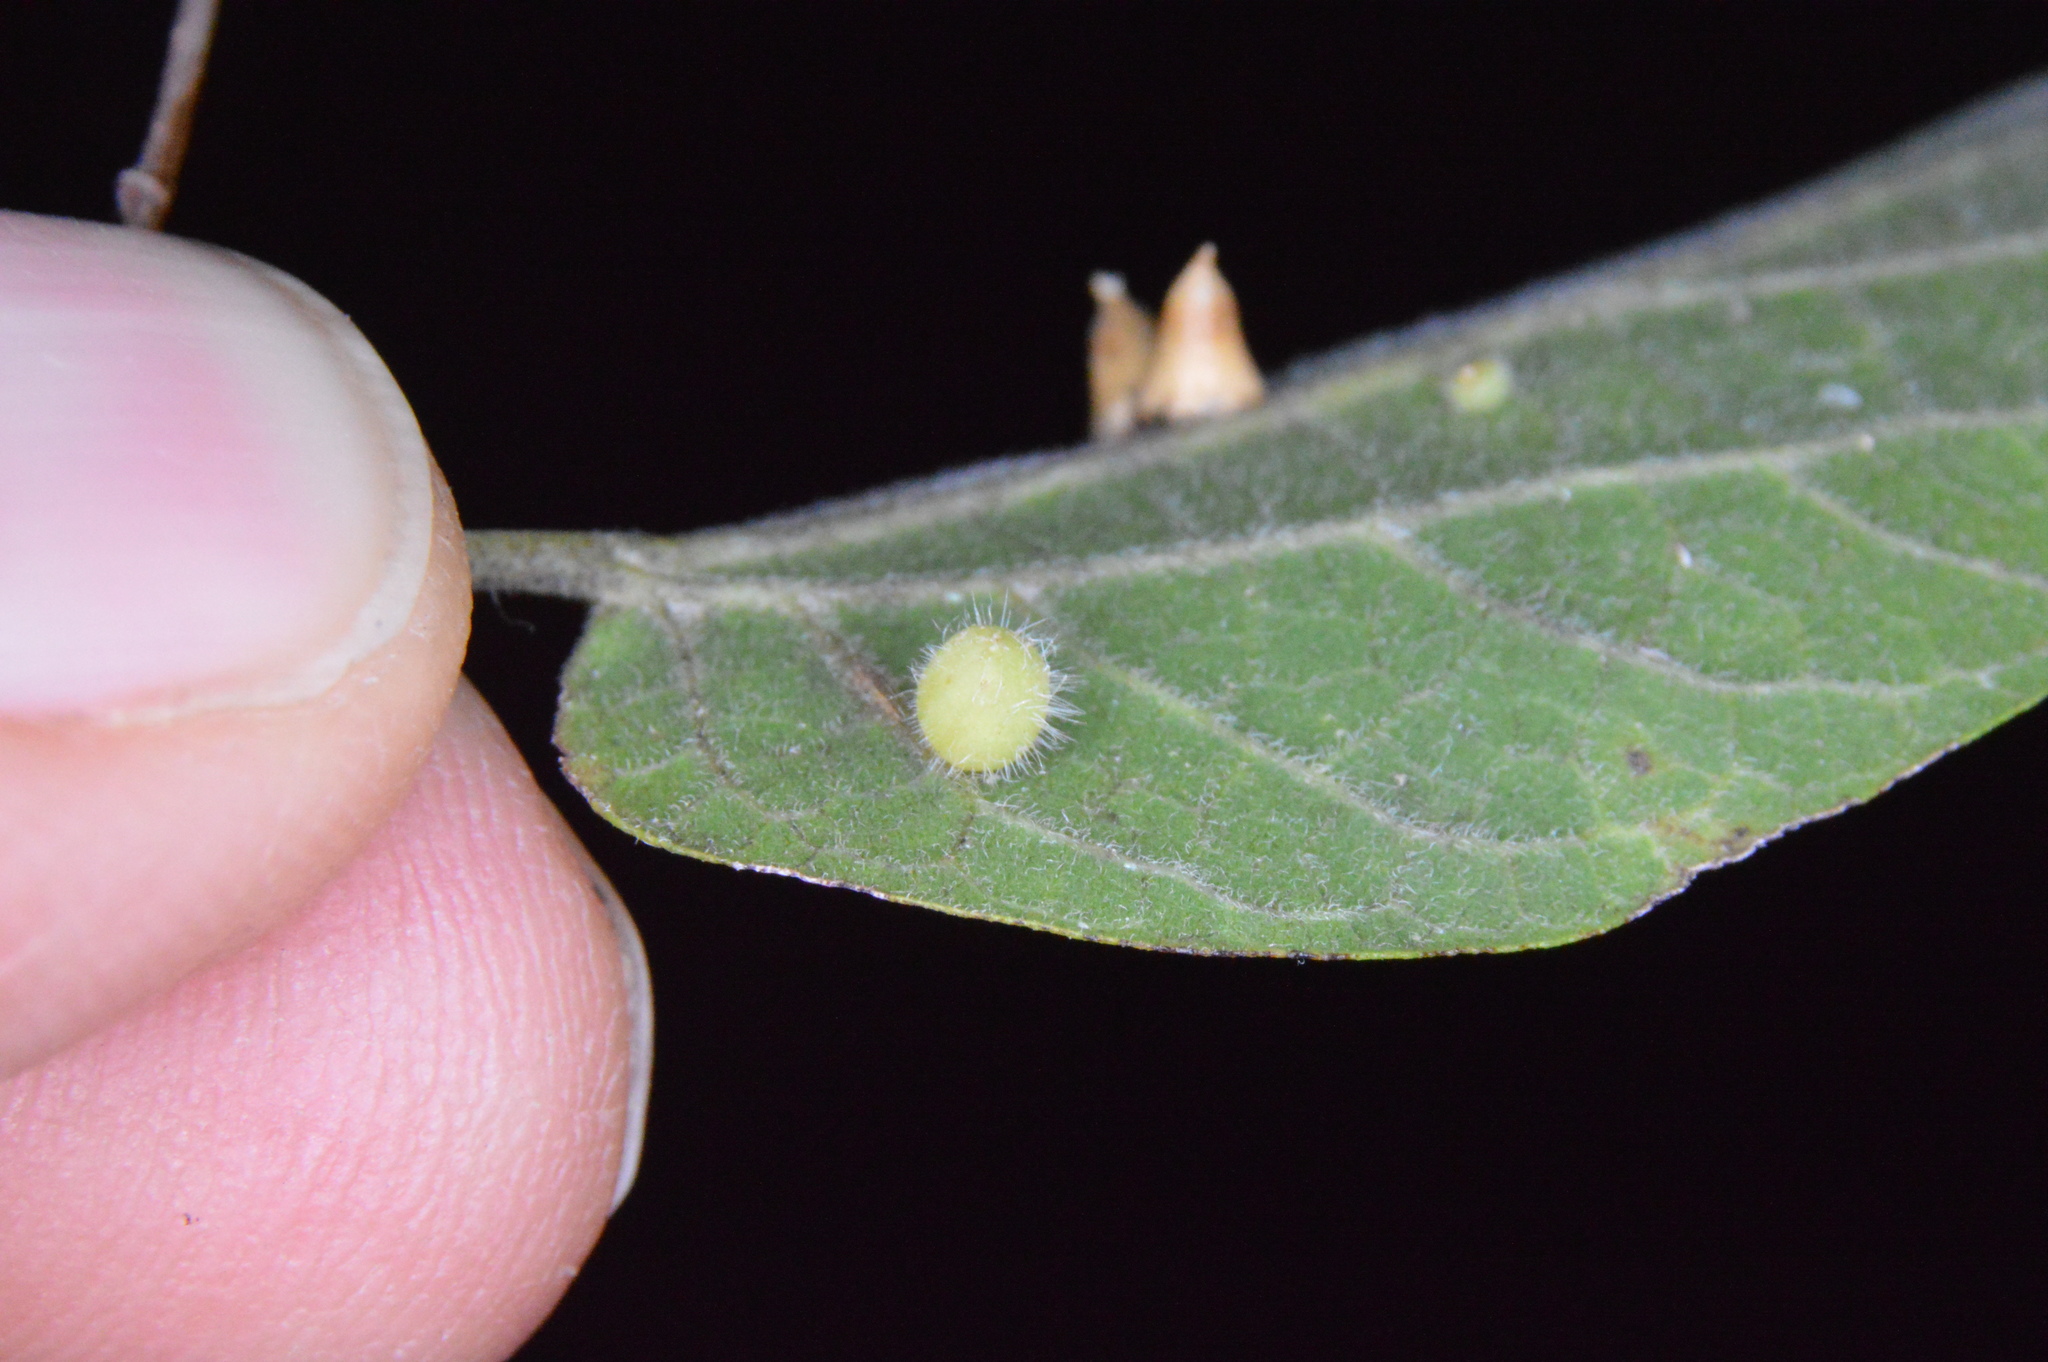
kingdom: Animalia
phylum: Arthropoda
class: Insecta
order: Diptera
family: Cecidomyiidae
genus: Celticecis
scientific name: Celticecis pubescens
